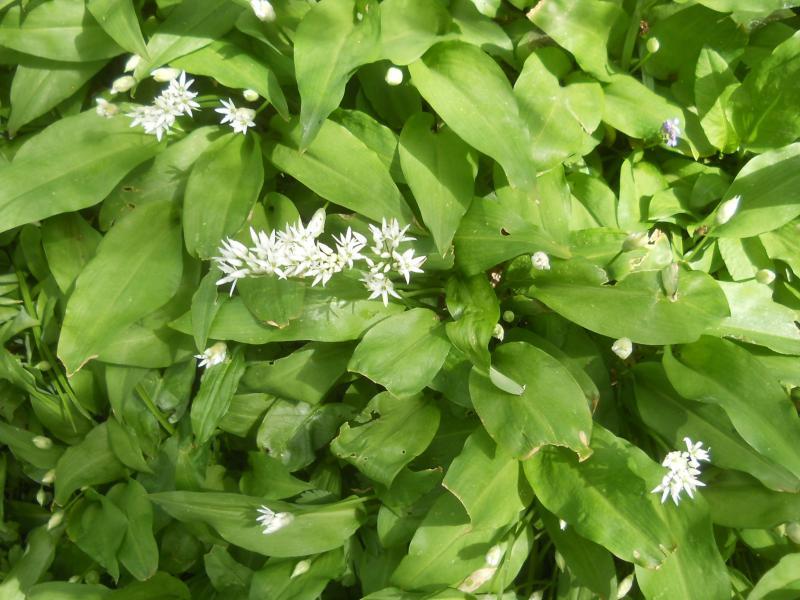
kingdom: Plantae
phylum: Tracheophyta
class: Liliopsida
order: Asparagales
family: Amaryllidaceae
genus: Allium
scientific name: Allium ursinum
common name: Ramsons
